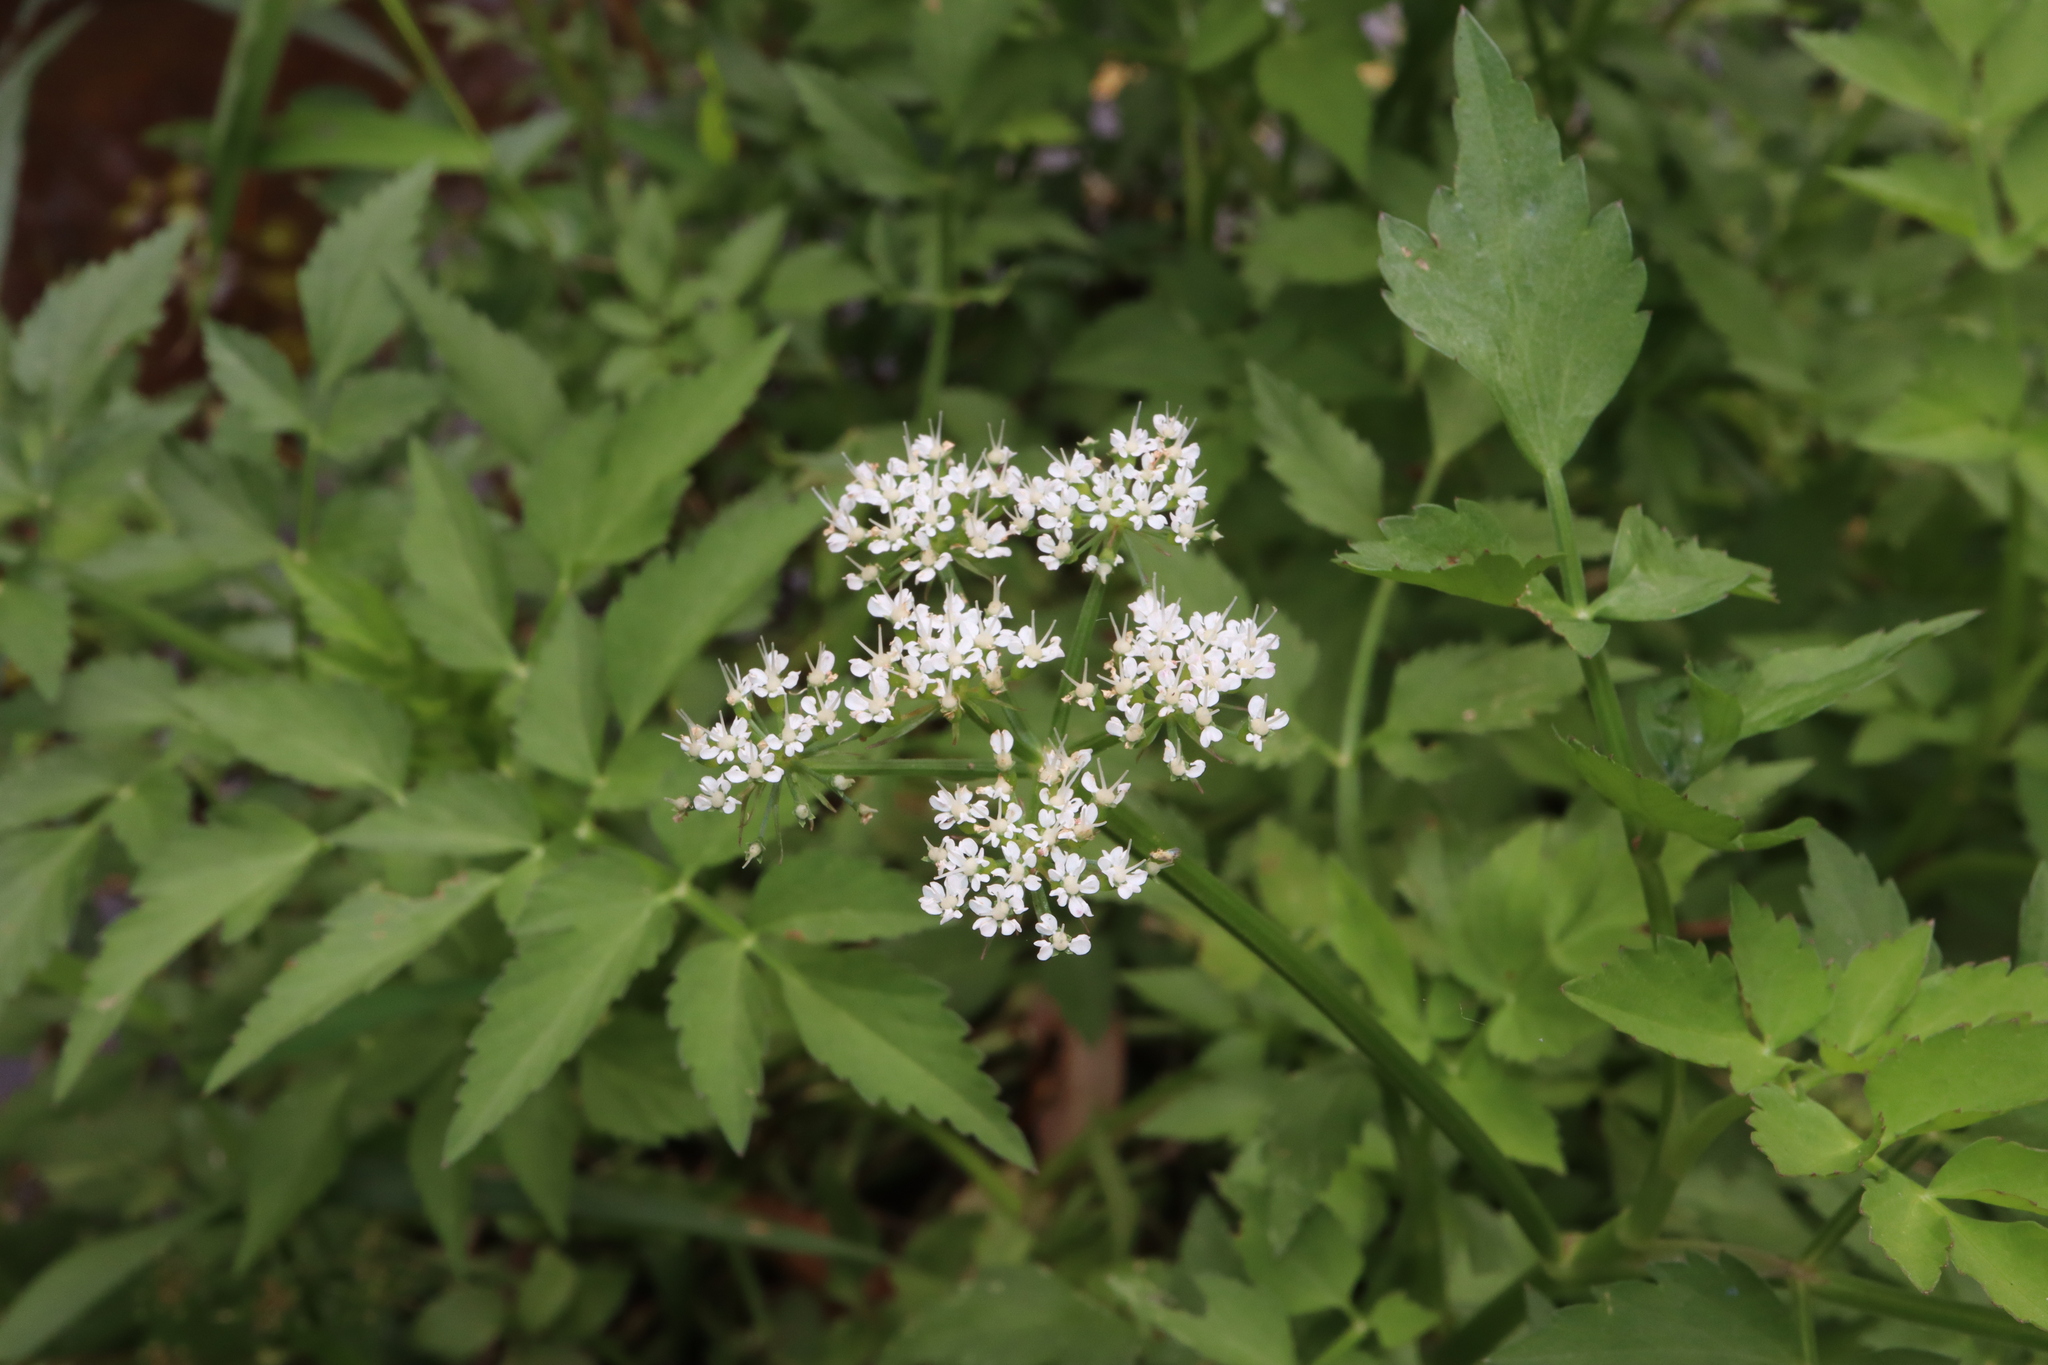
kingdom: Plantae
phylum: Tracheophyta
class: Magnoliopsida
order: Apiales
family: Apiaceae
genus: Oenanthe
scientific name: Oenanthe javanica
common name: Java water-dropwort
